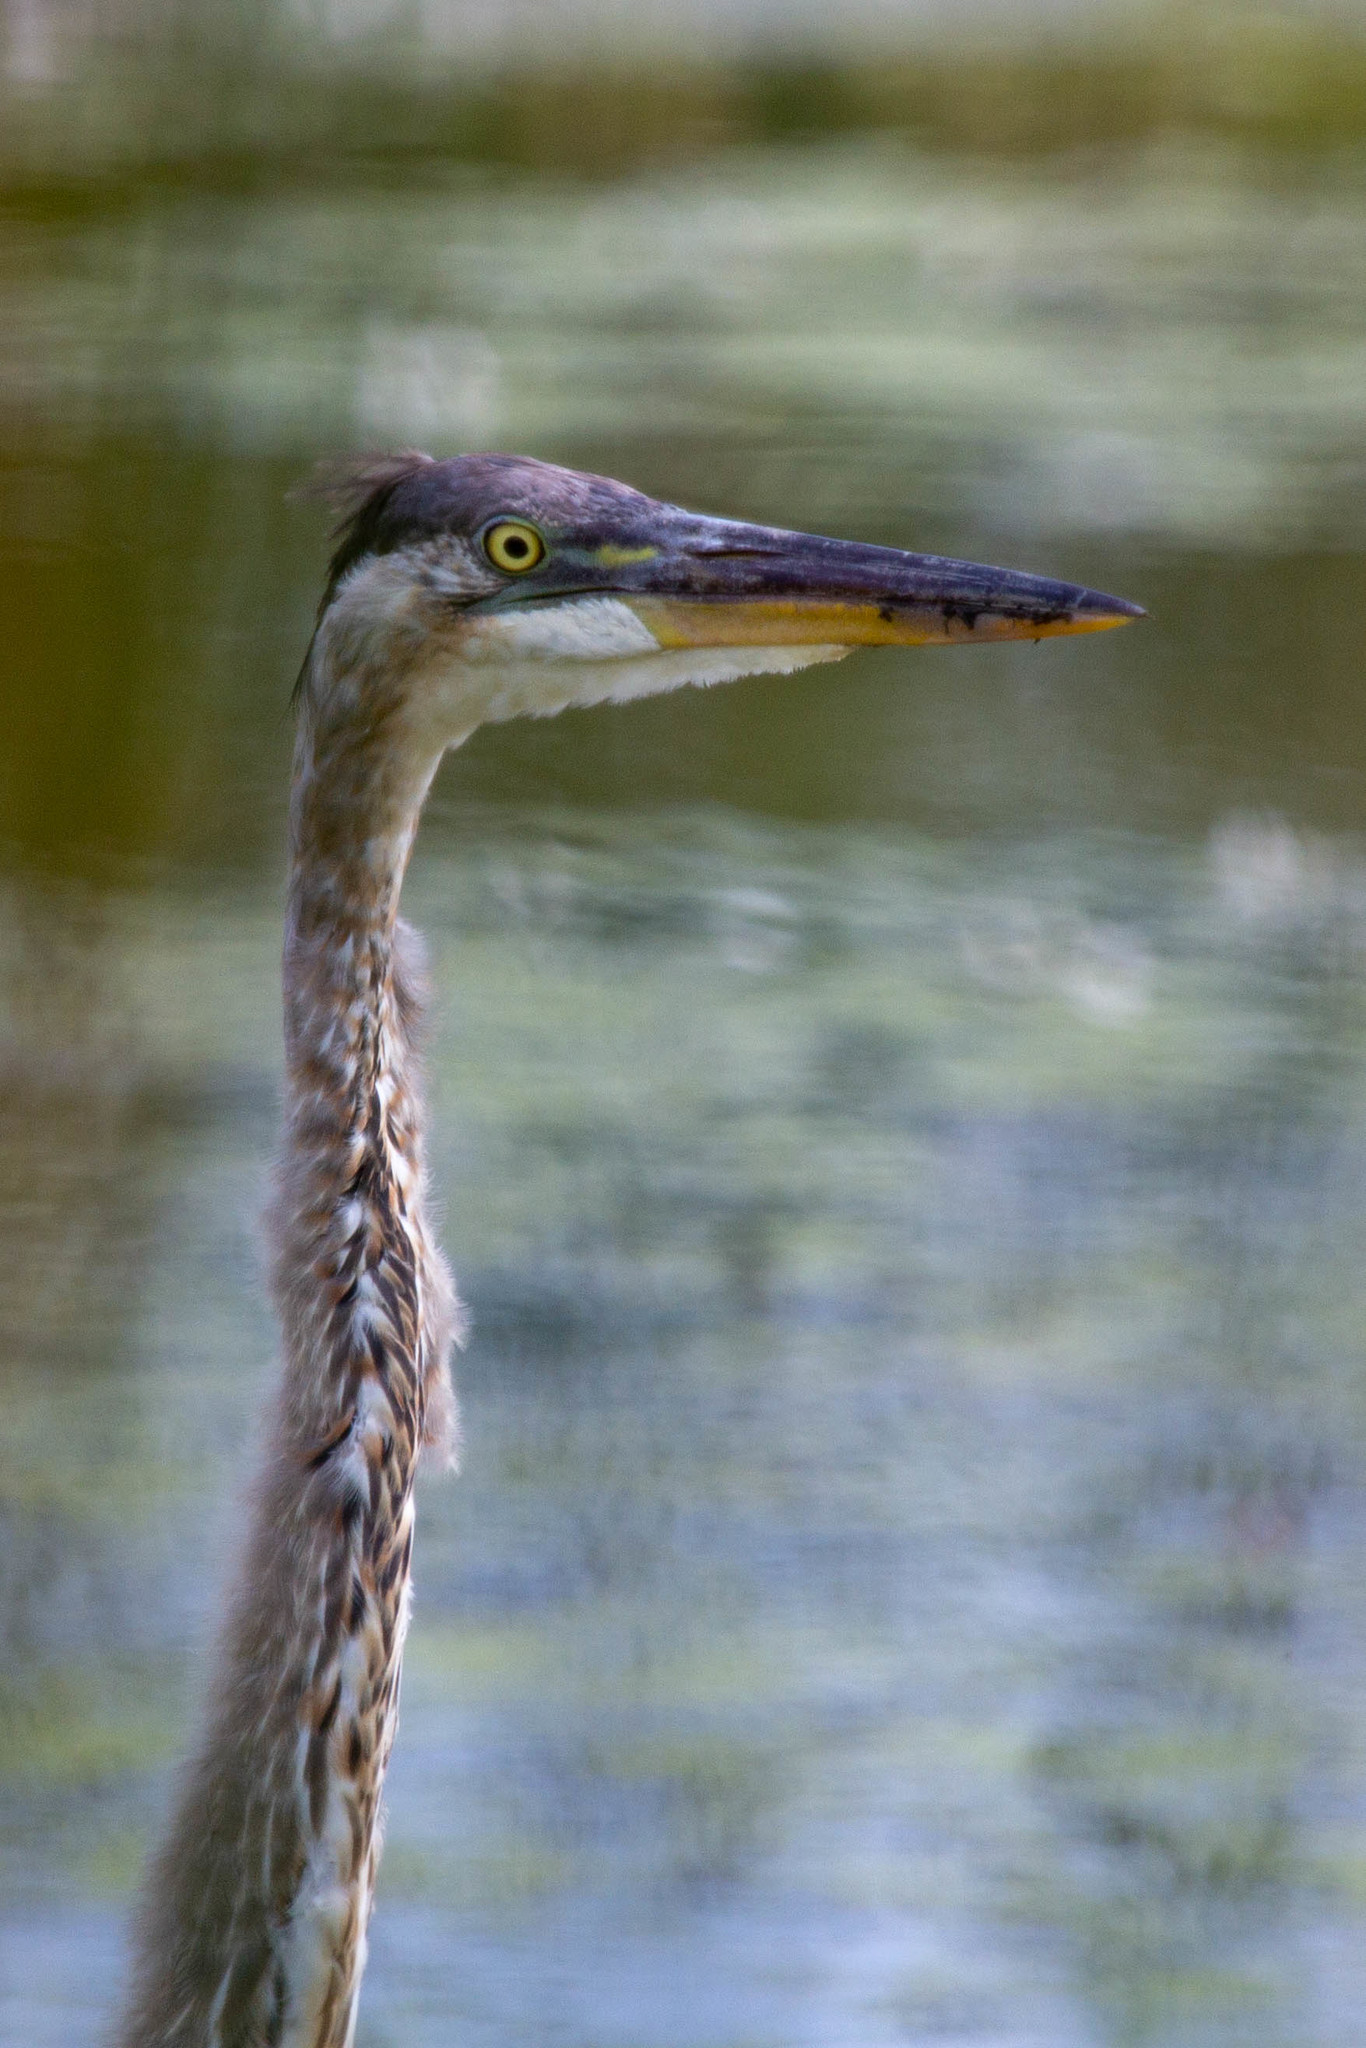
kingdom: Animalia
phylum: Chordata
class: Aves
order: Pelecaniformes
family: Ardeidae
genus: Ardea
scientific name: Ardea herodias
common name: Great blue heron
